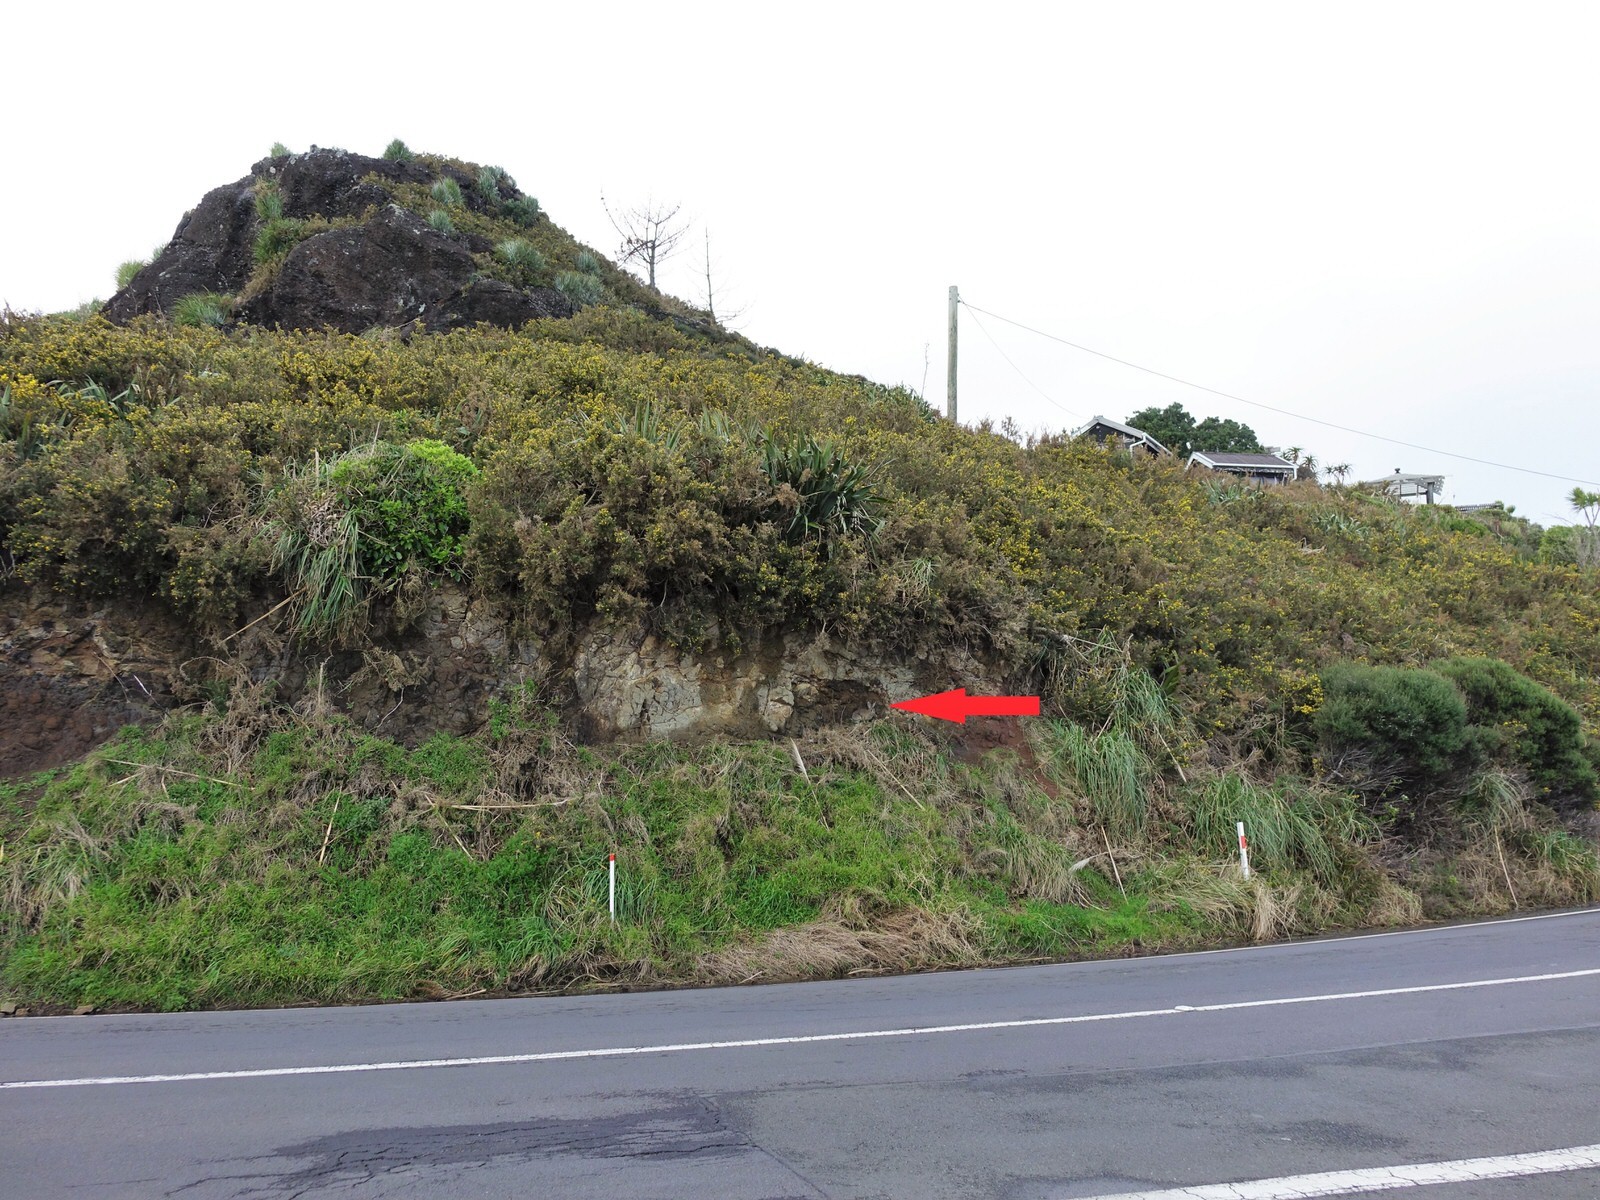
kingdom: Animalia
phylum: Chordata
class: Mammalia
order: Lagomorpha
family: Leporidae
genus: Oryctolagus
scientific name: Oryctolagus cuniculus
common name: European rabbit
